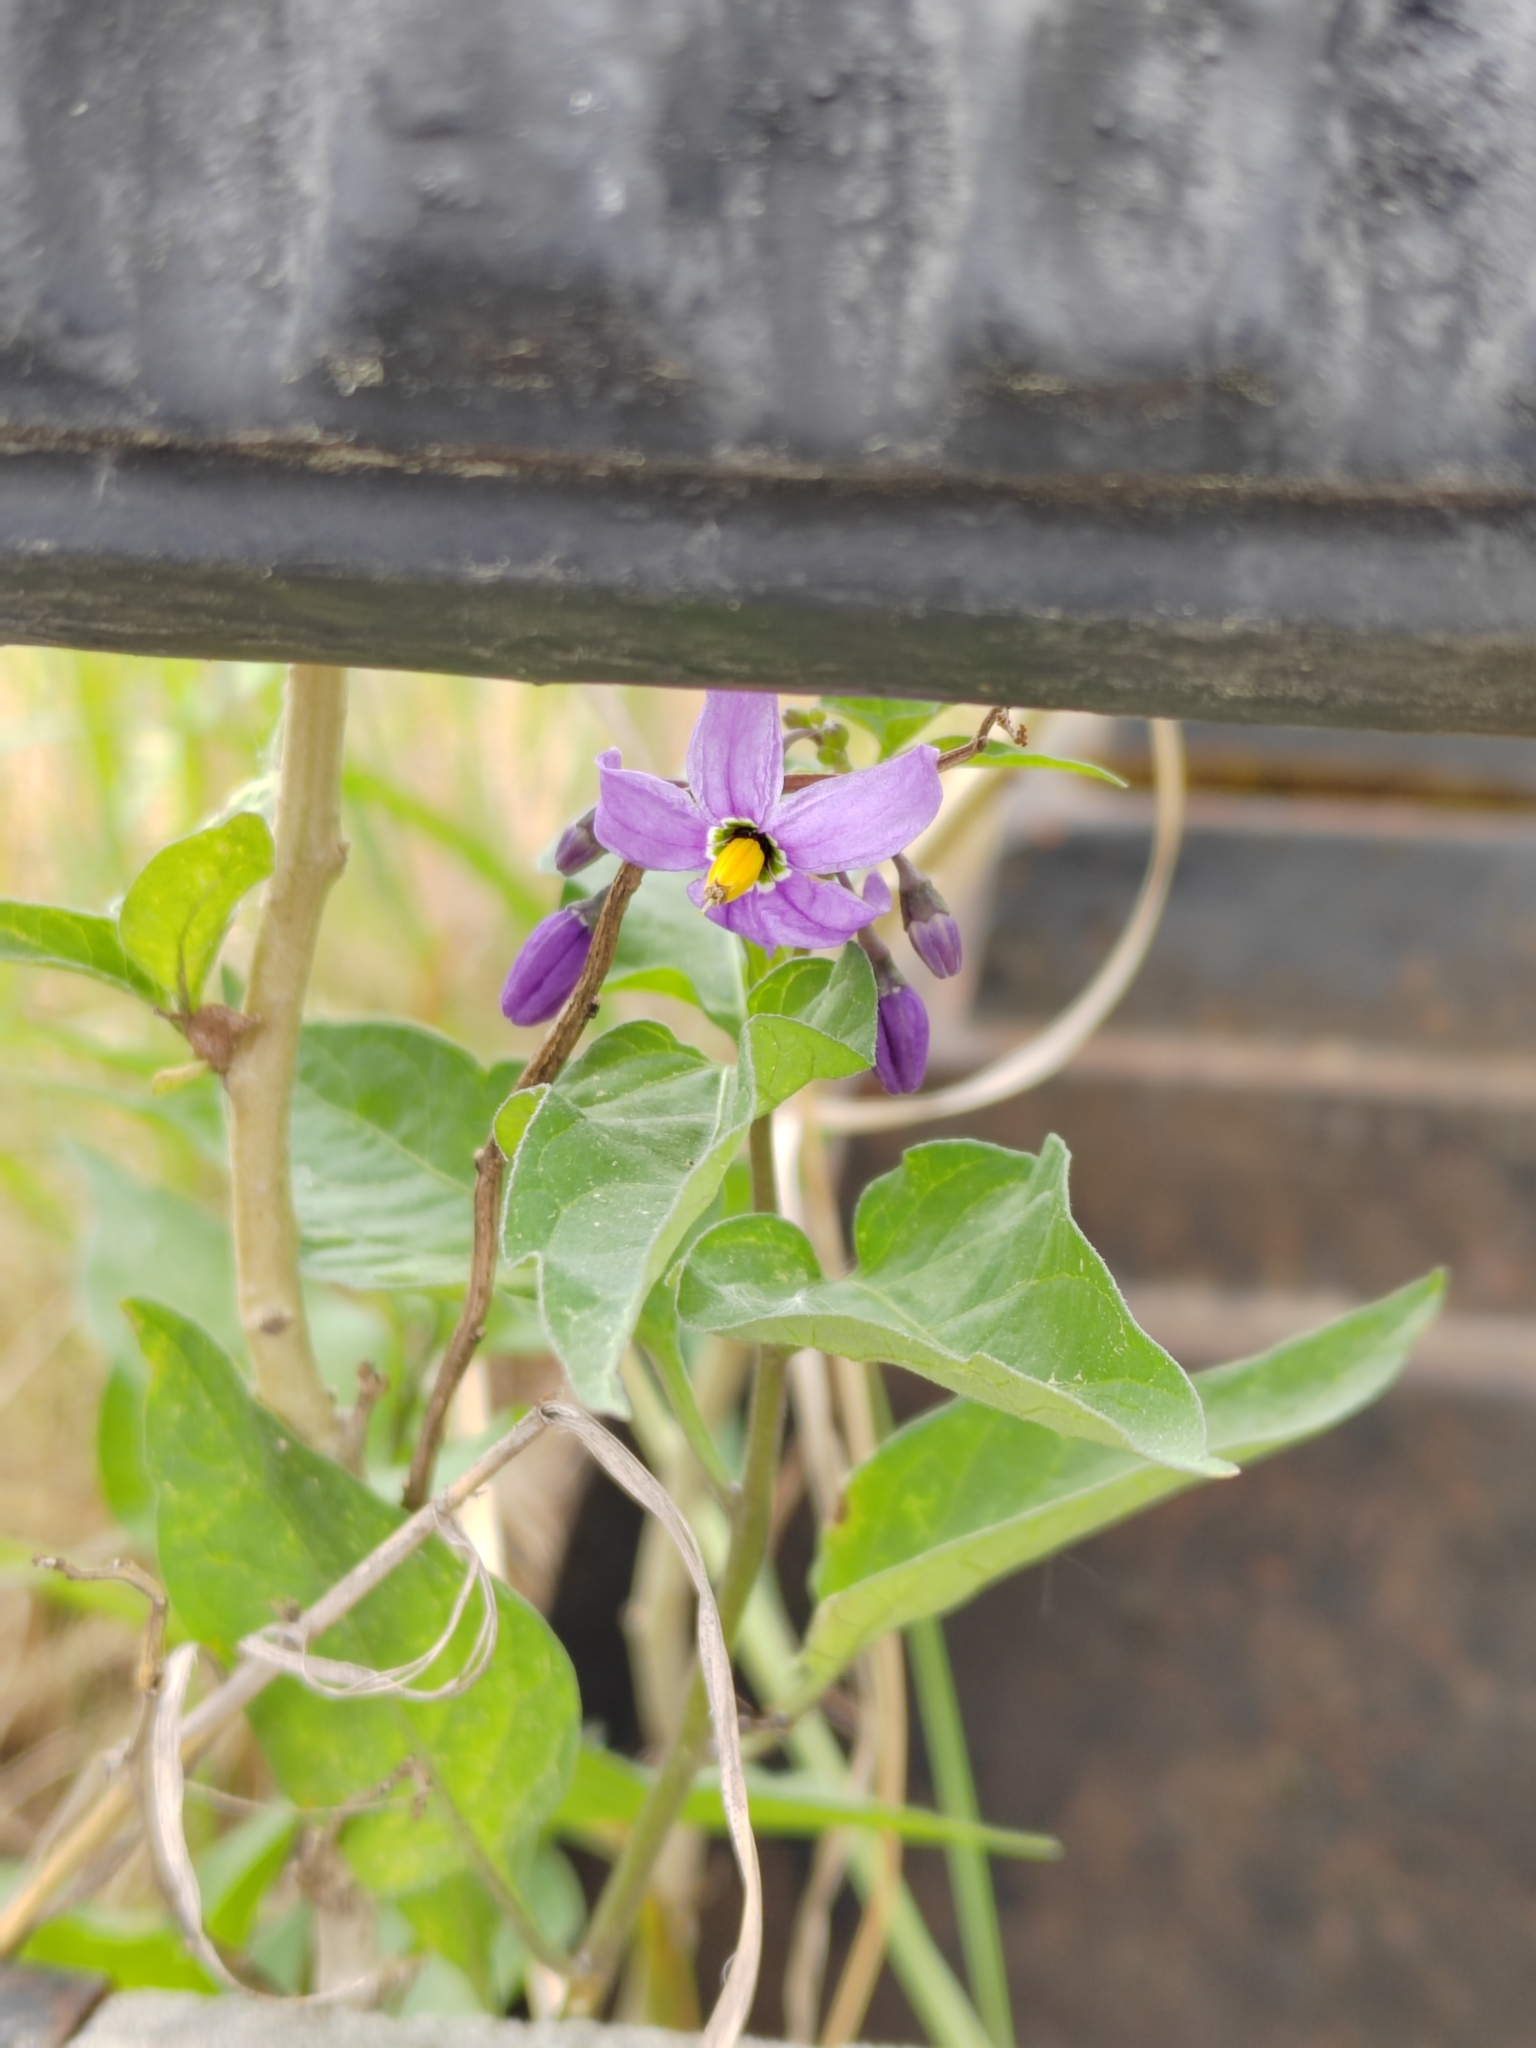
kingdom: Plantae
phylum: Tracheophyta
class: Magnoliopsida
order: Solanales
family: Solanaceae
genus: Solanum
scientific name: Solanum dulcamara
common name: Climbing nightshade
